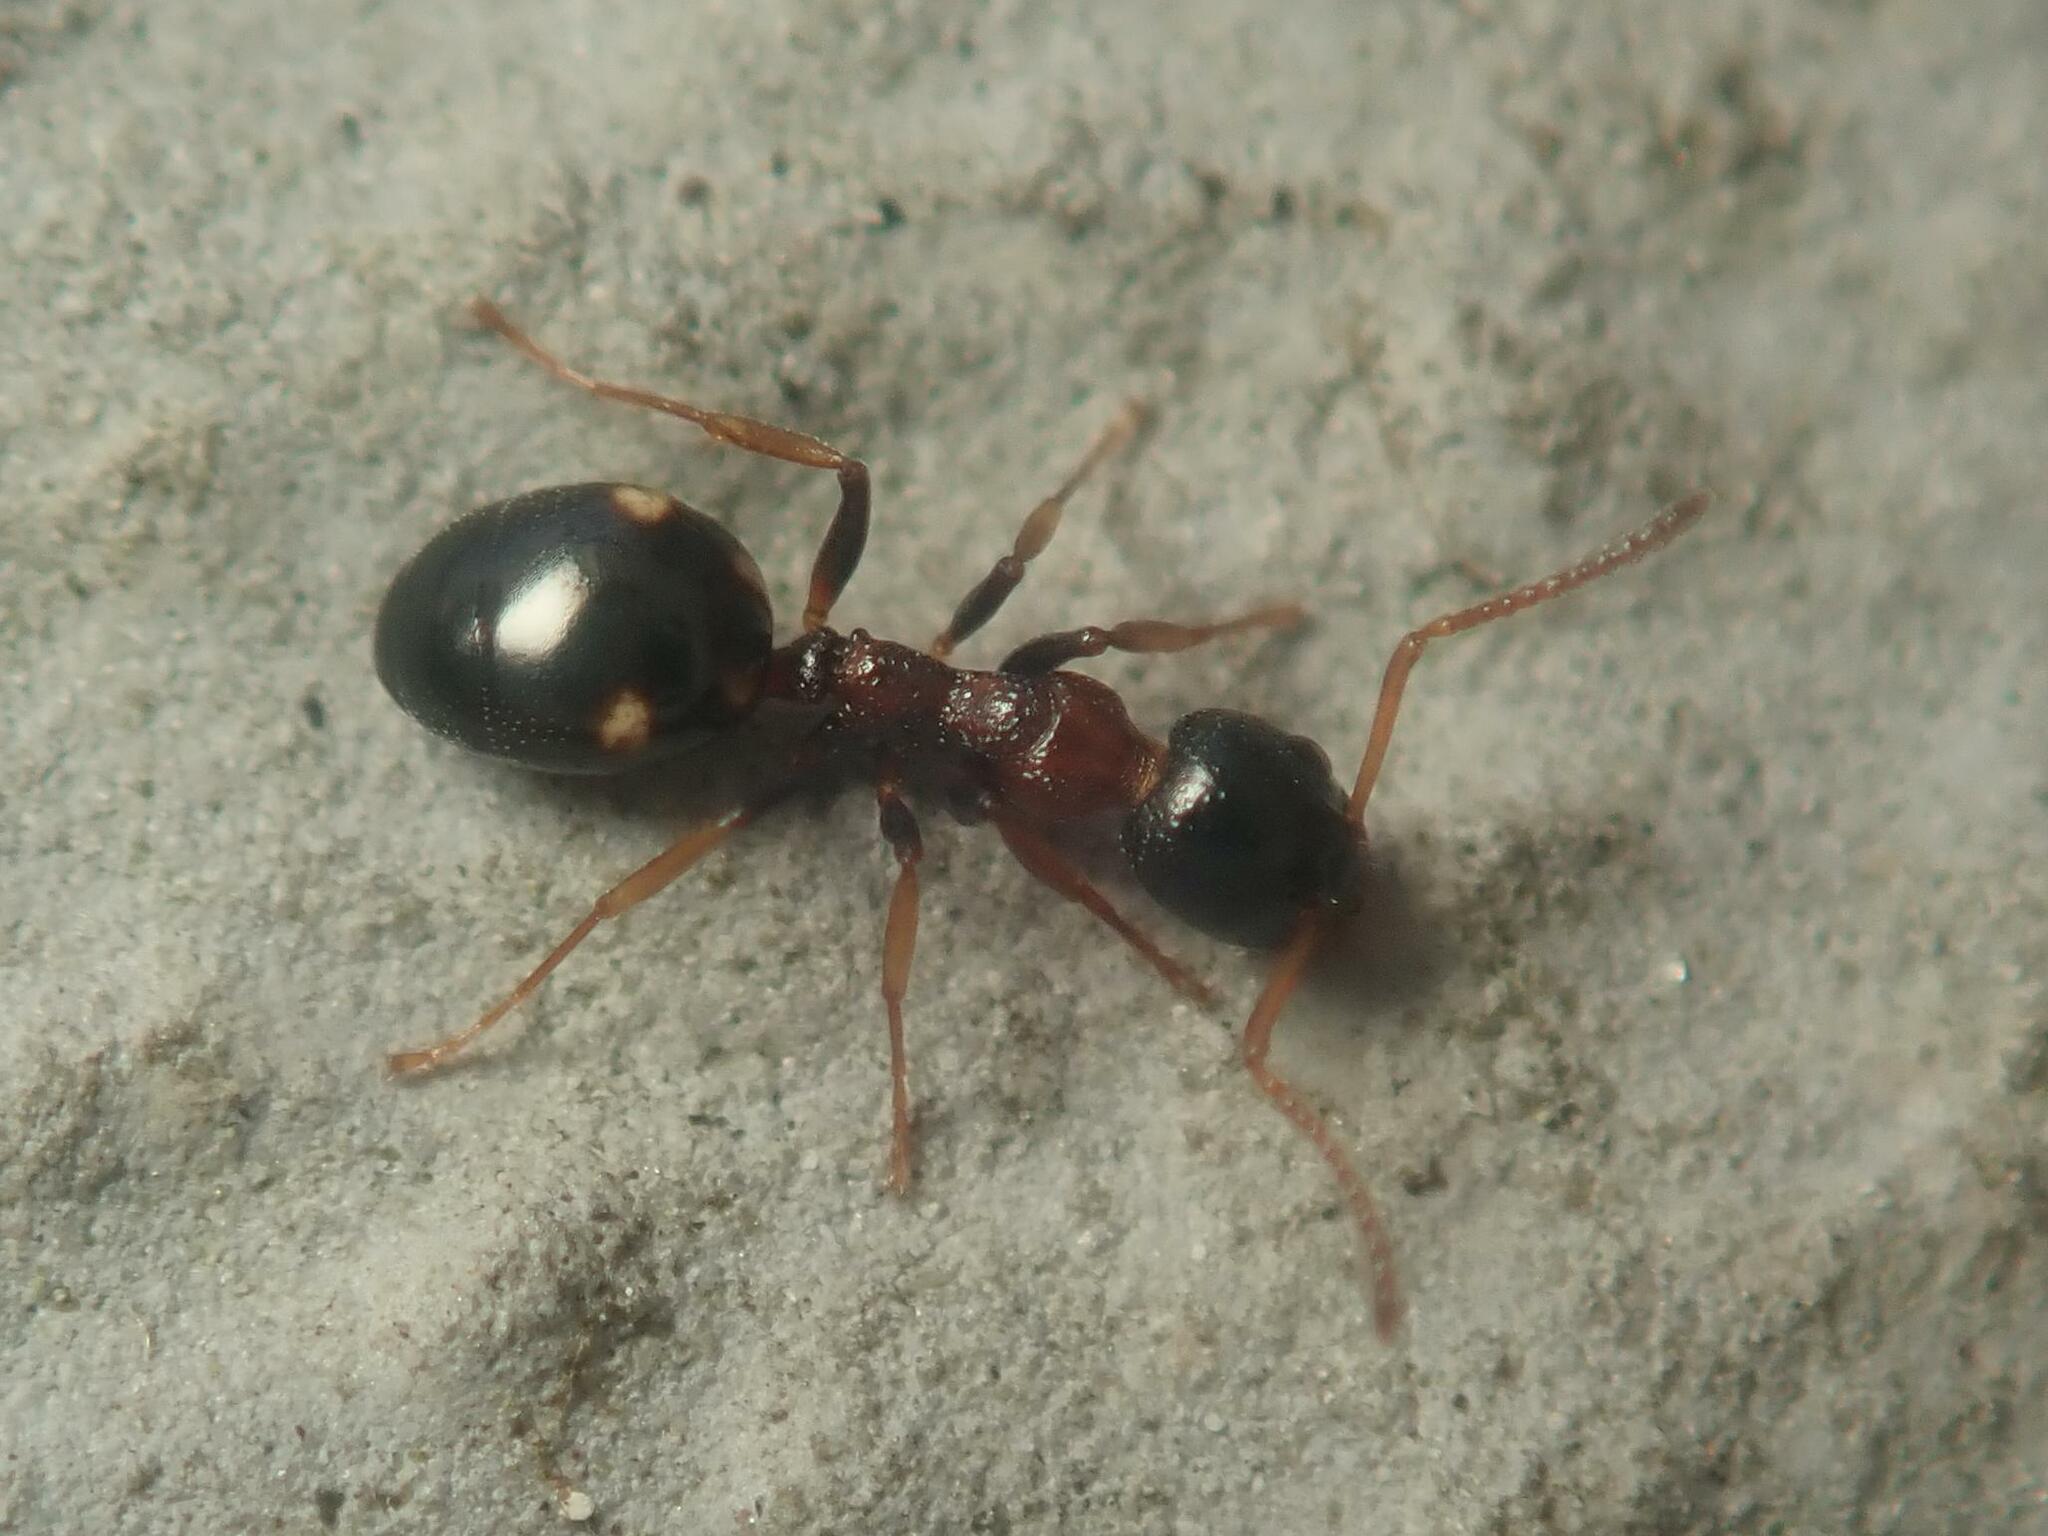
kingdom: Animalia
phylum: Arthropoda
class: Insecta
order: Hymenoptera
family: Formicidae
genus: Dolichoderus
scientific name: Dolichoderus quadripunctatus
